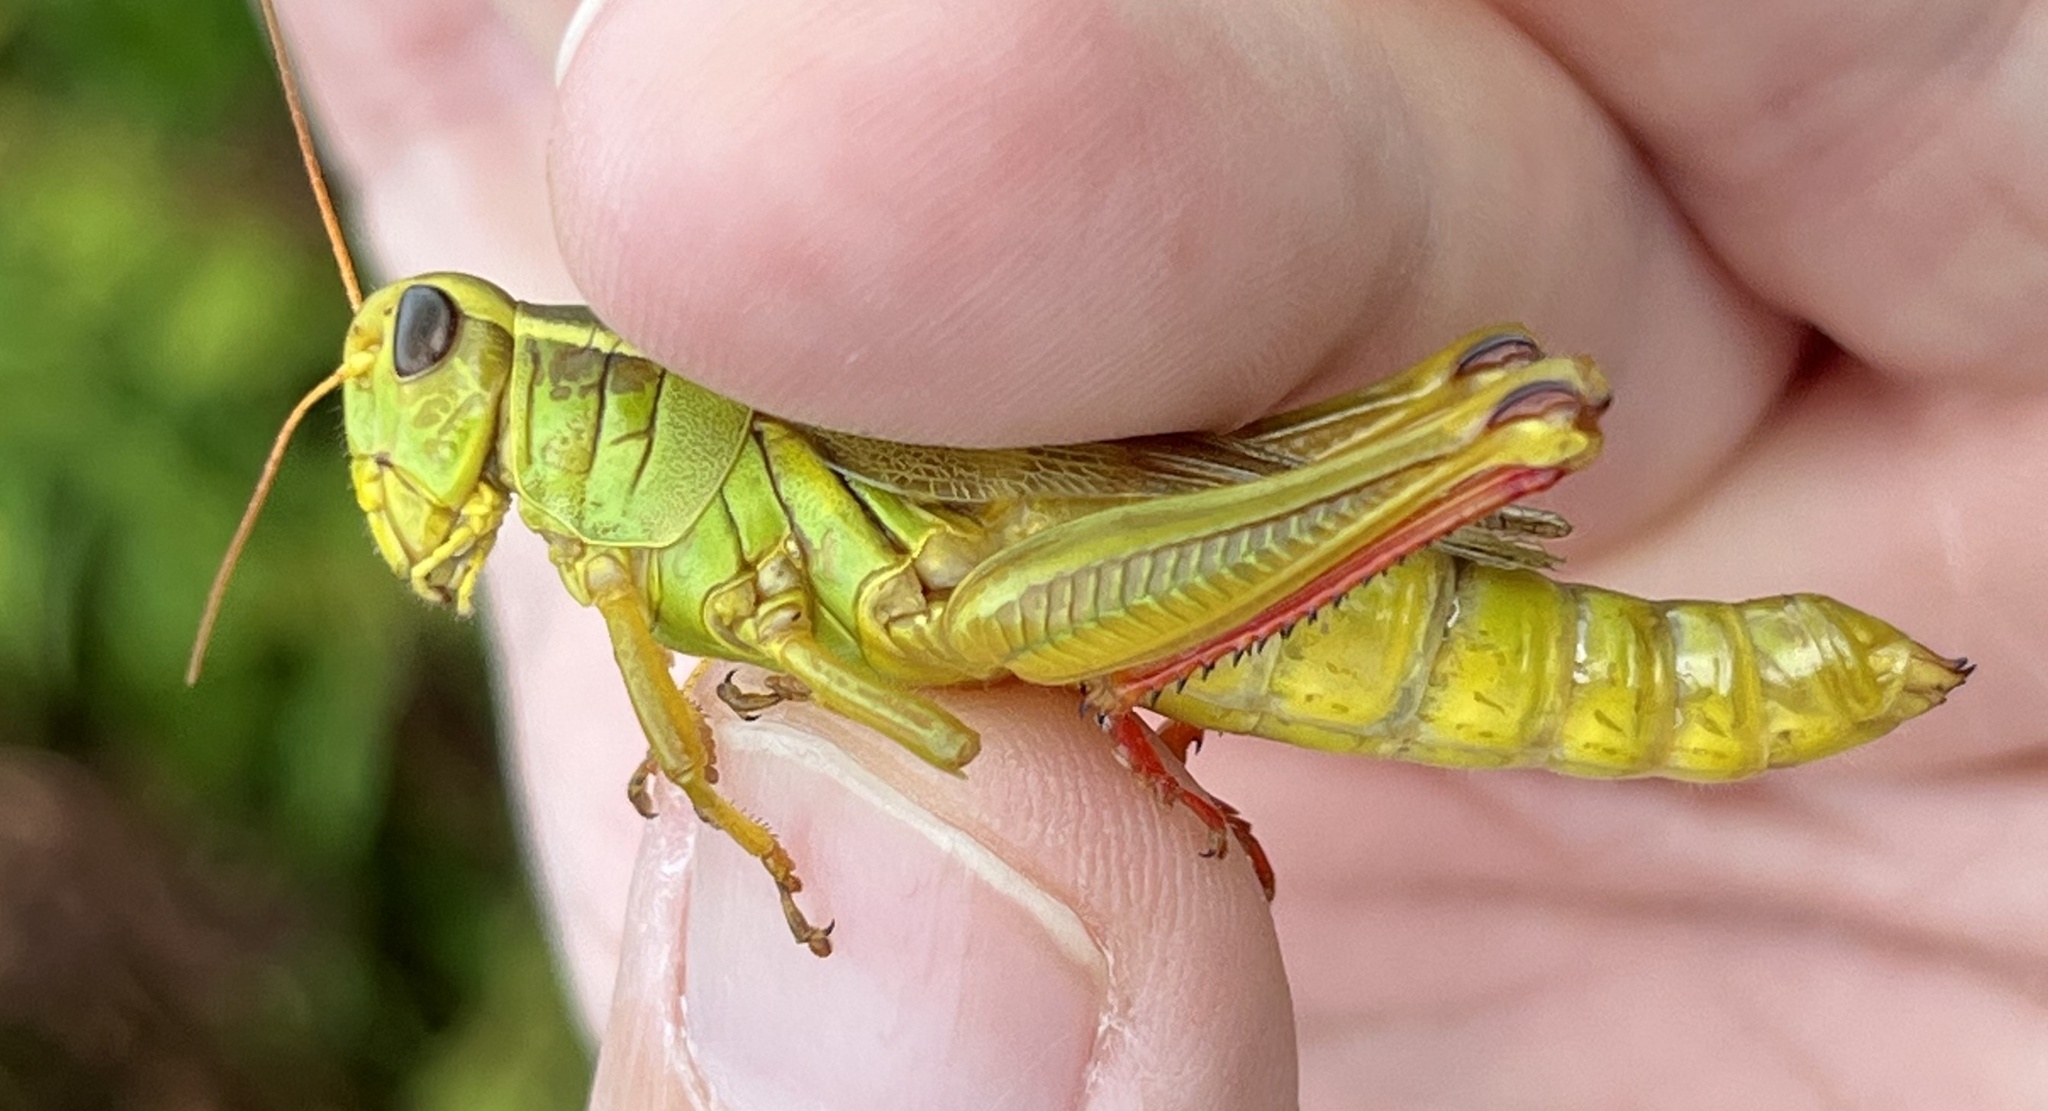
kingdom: Animalia
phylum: Arthropoda
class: Insecta
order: Orthoptera
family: Acrididae
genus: Melanoplus
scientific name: Melanoplus bivittatus
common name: Two-striped grasshopper
